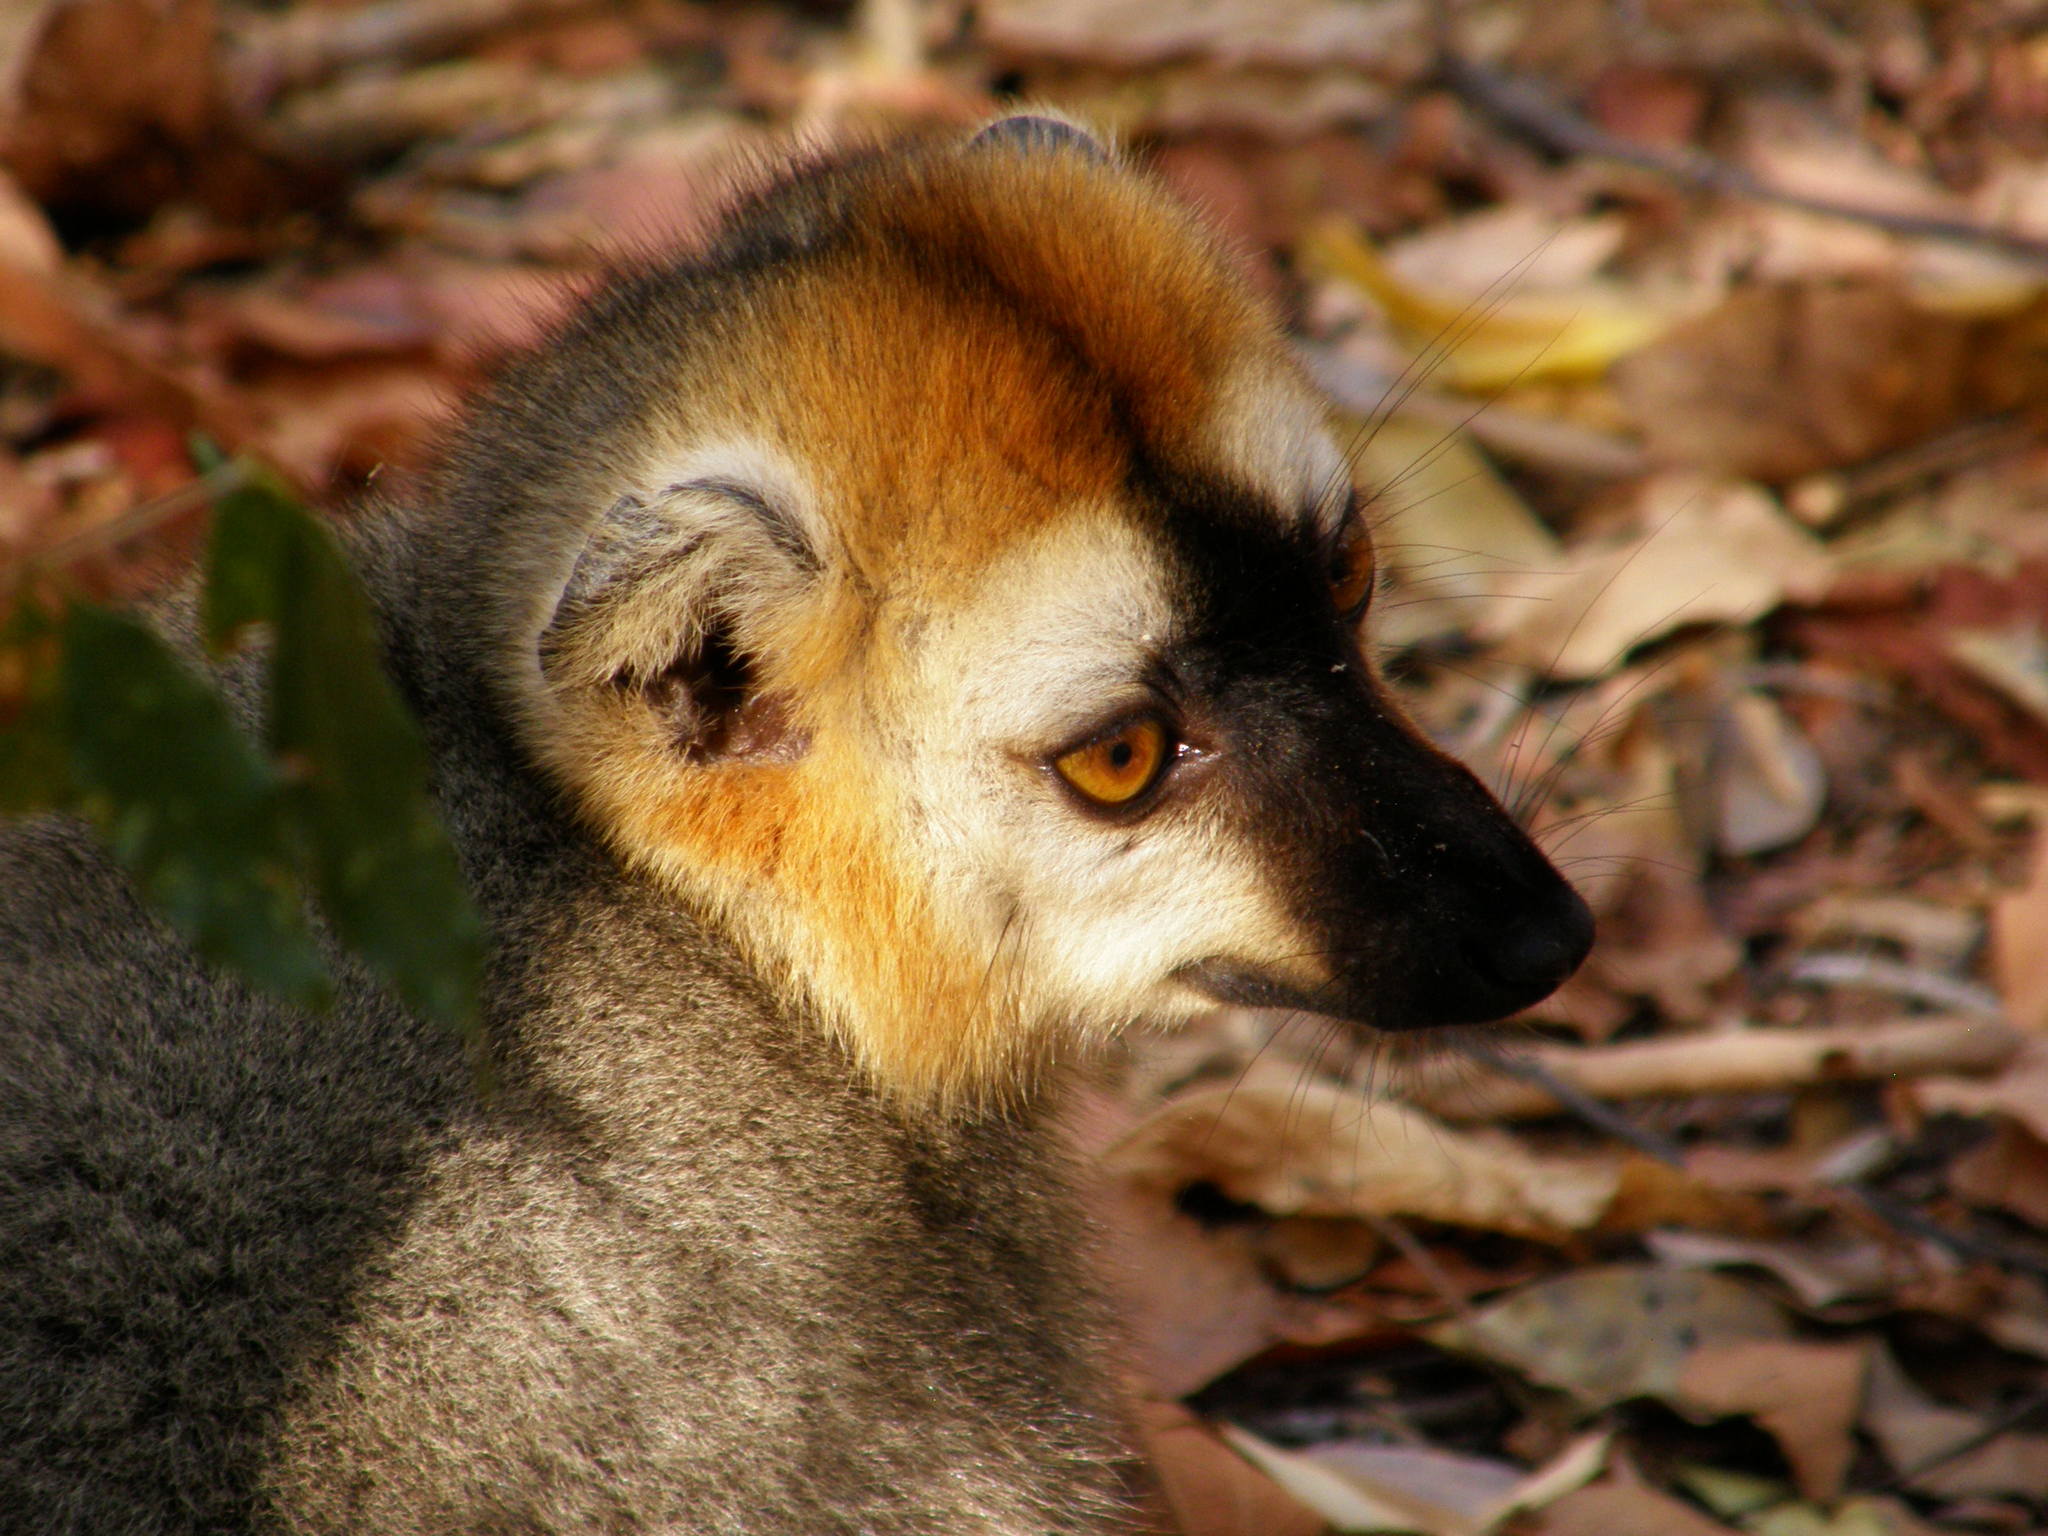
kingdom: Animalia
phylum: Chordata
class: Mammalia
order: Primates
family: Lemuridae
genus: Eulemur
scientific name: Eulemur rufifrons
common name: Red-fronted brown lemur
